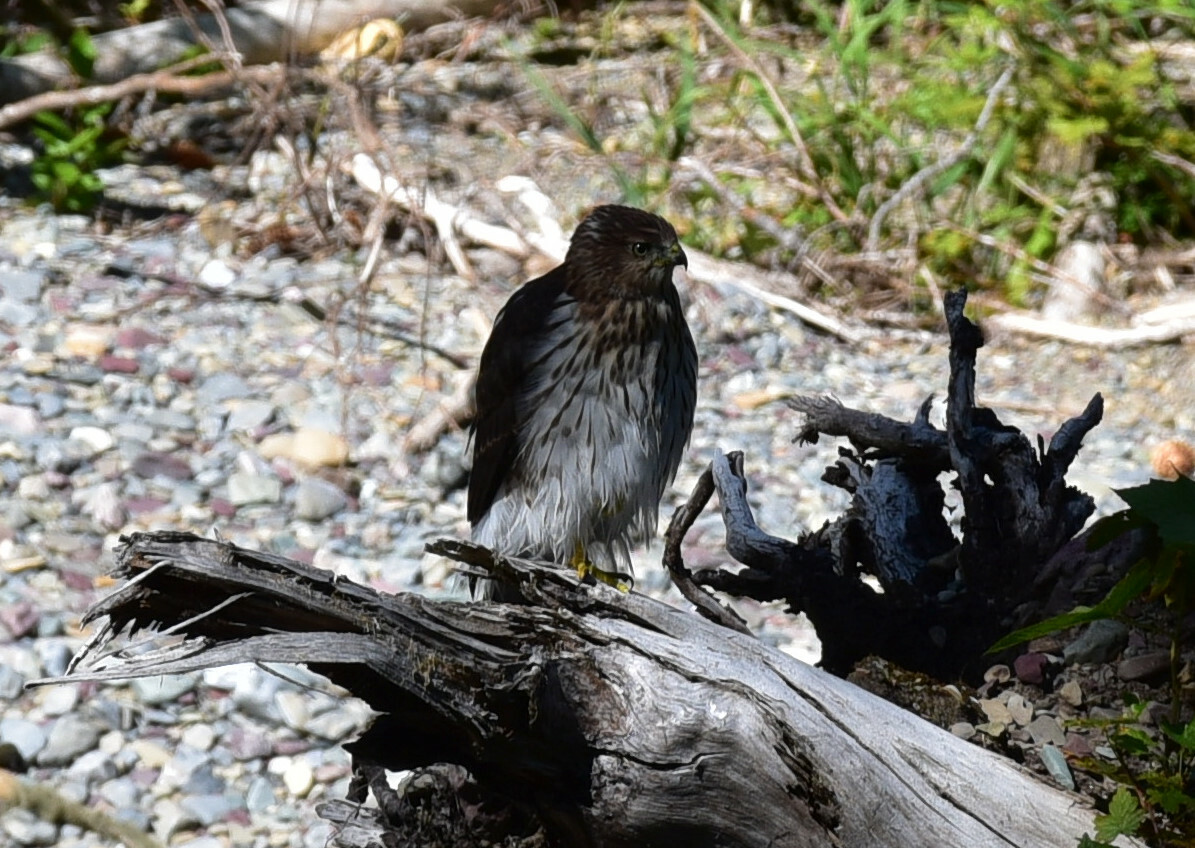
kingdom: Animalia
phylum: Chordata
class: Aves
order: Accipitriformes
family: Accipitridae
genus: Accipiter
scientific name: Accipiter cooperii
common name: Cooper's hawk
